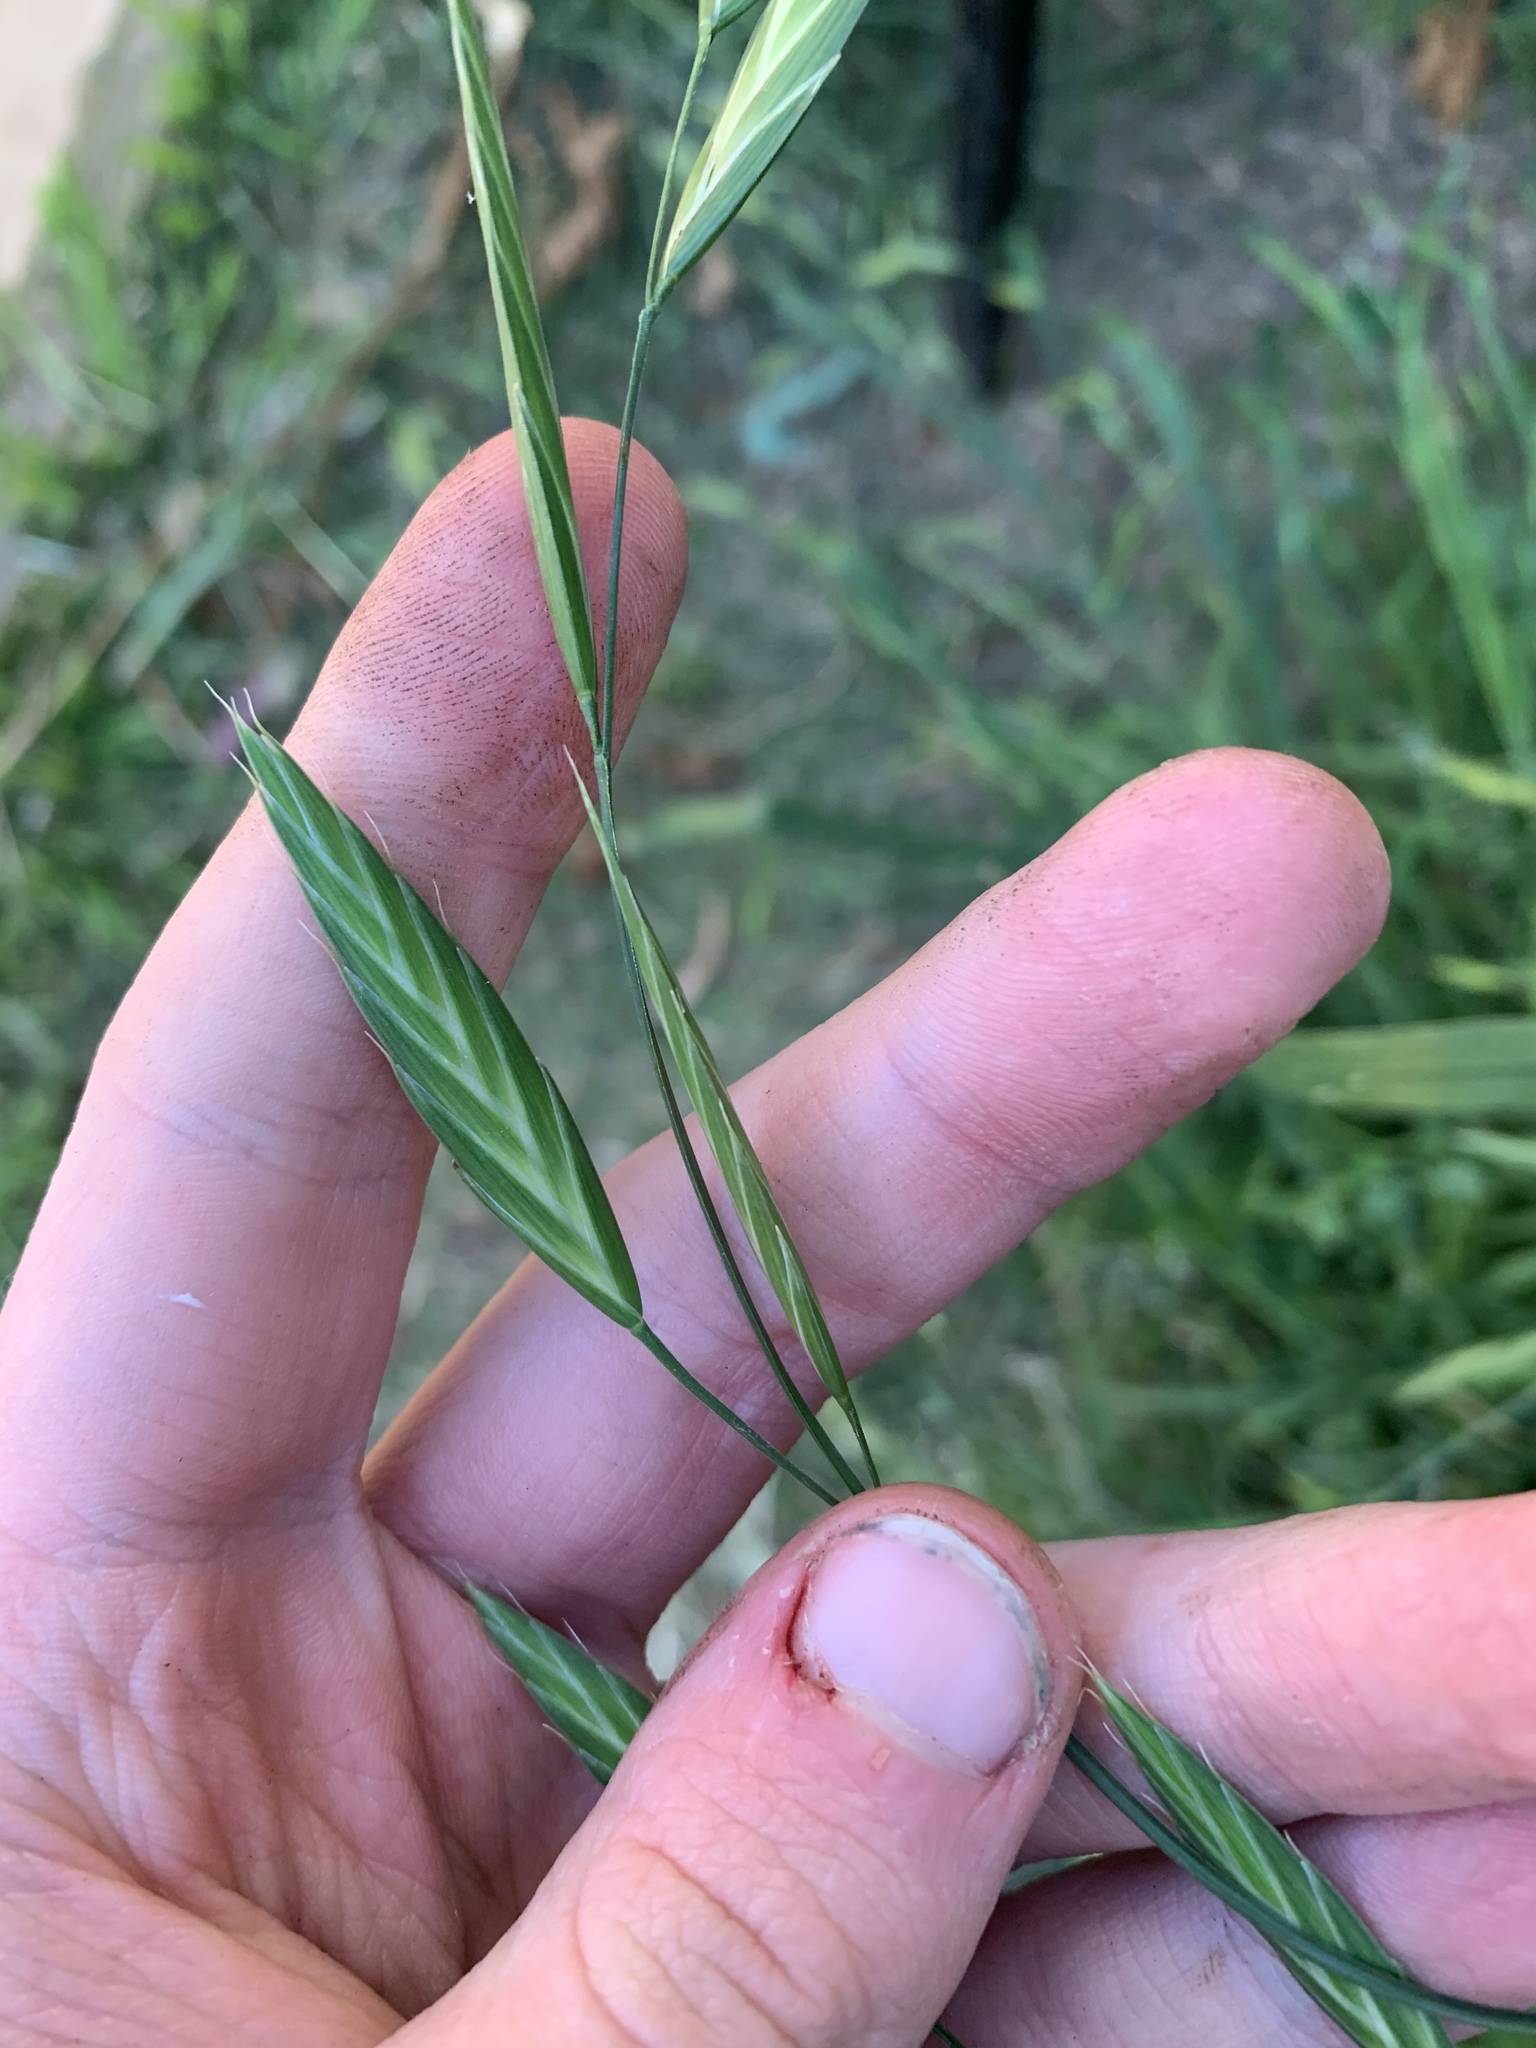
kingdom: Plantae
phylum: Tracheophyta
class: Liliopsida
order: Poales
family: Poaceae
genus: Bromus
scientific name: Bromus catharticus
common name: Rescuegrass
